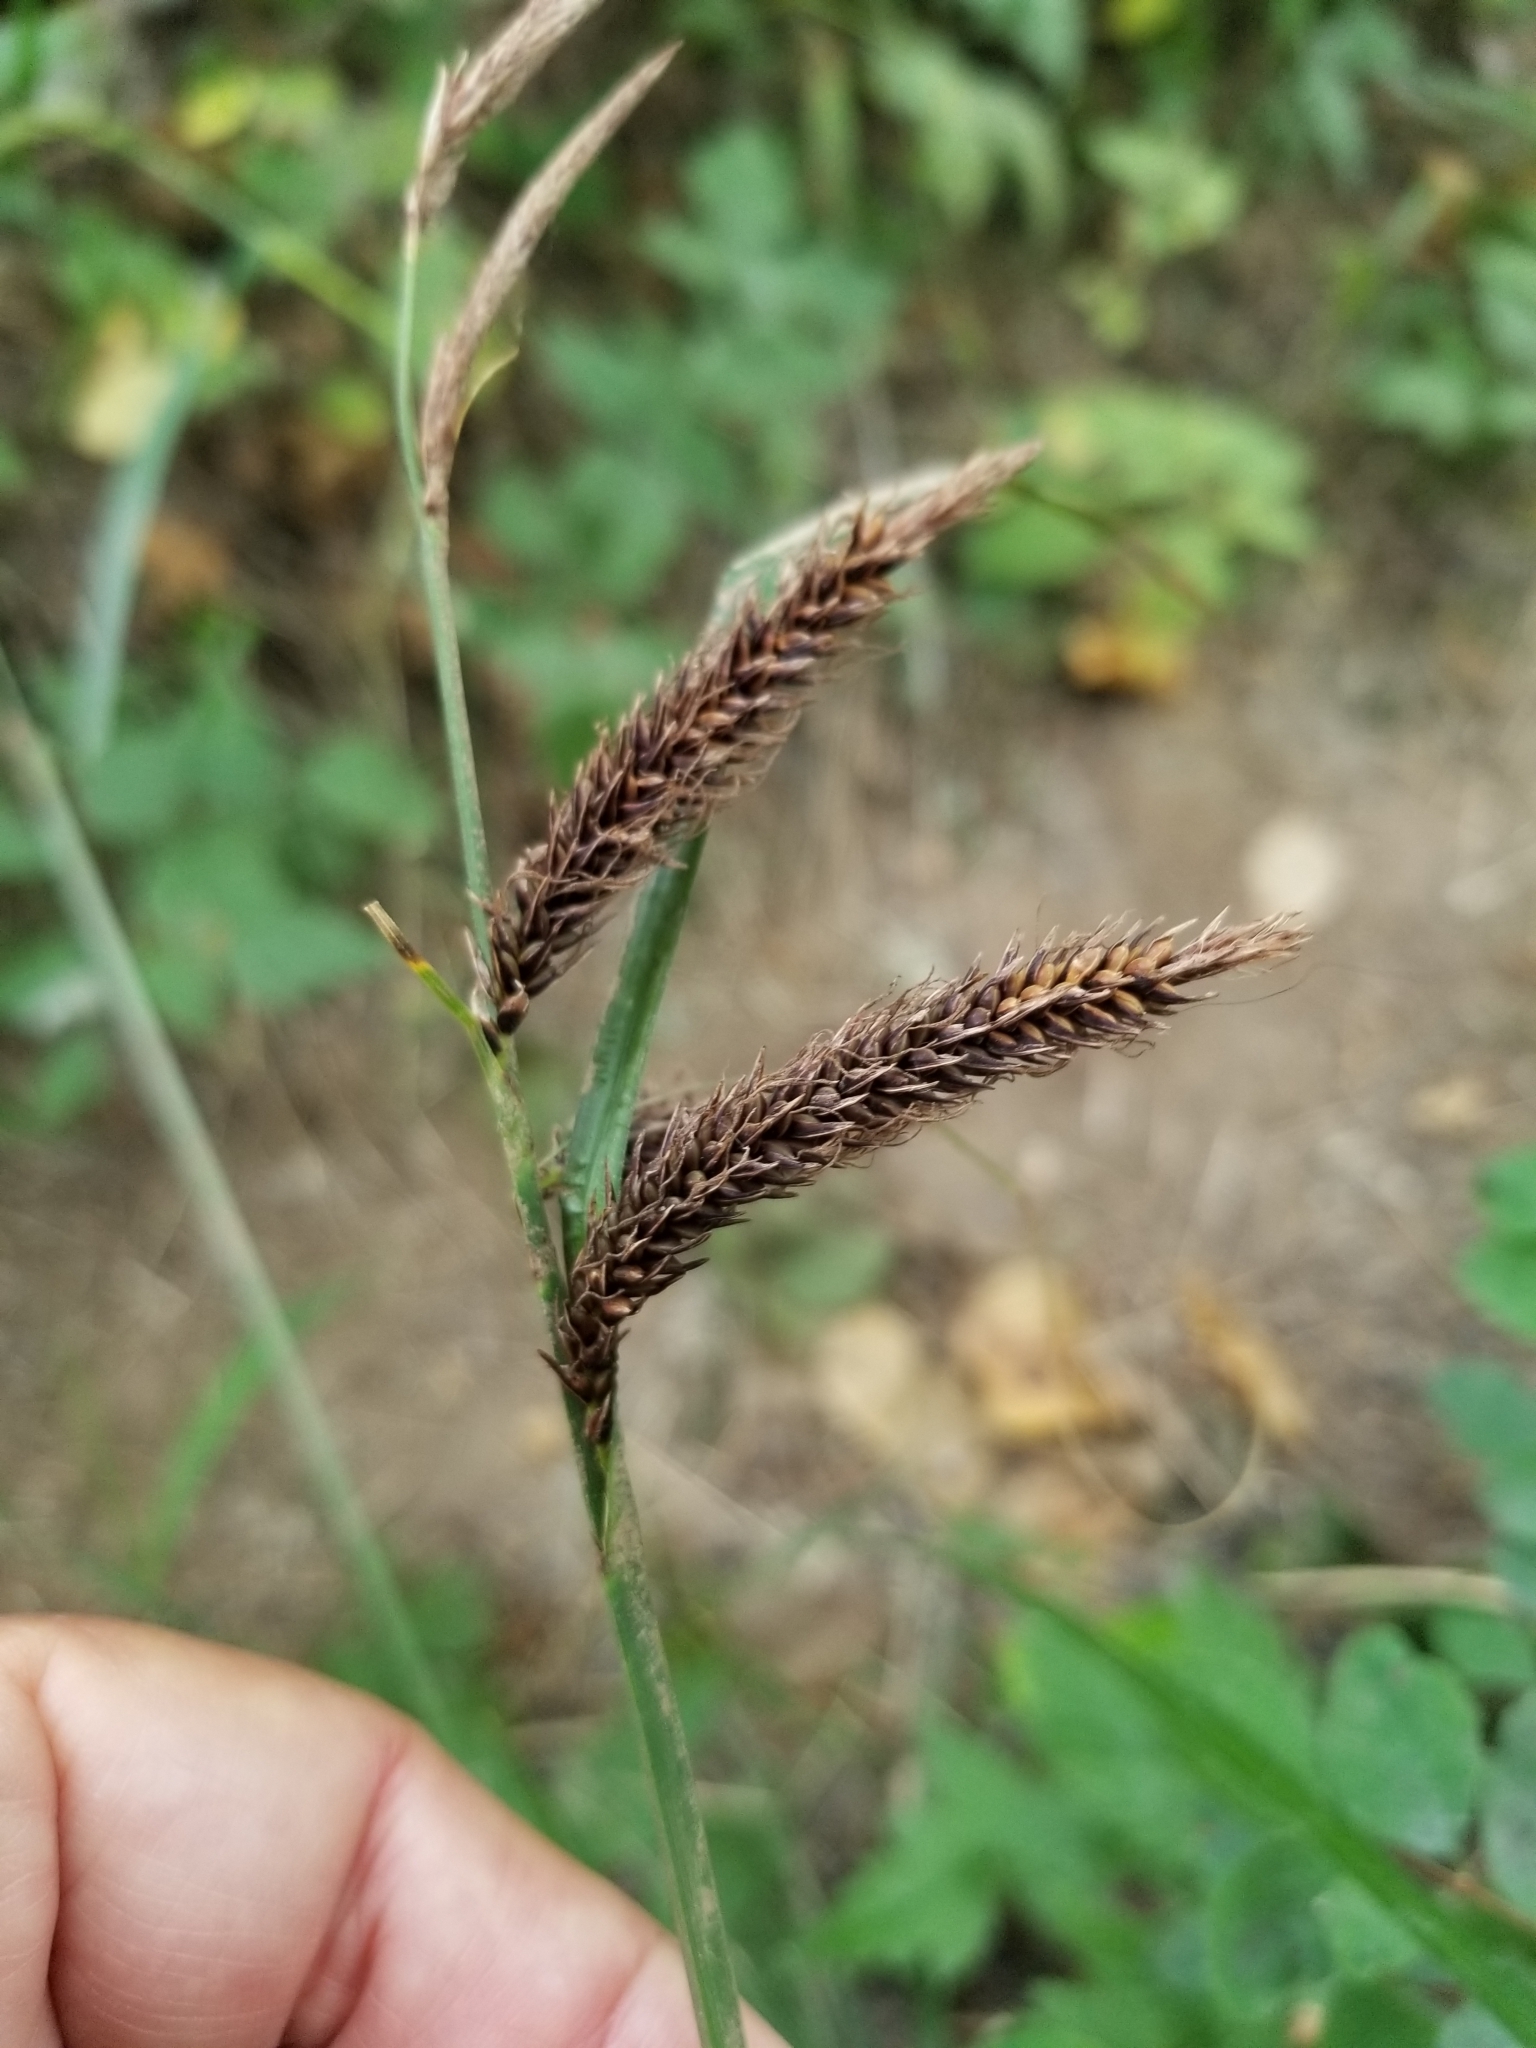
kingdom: Plantae
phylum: Tracheophyta
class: Liliopsida
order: Poales
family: Cyperaceae
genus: Carex
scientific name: Carex obnupta
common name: Slough sedge
